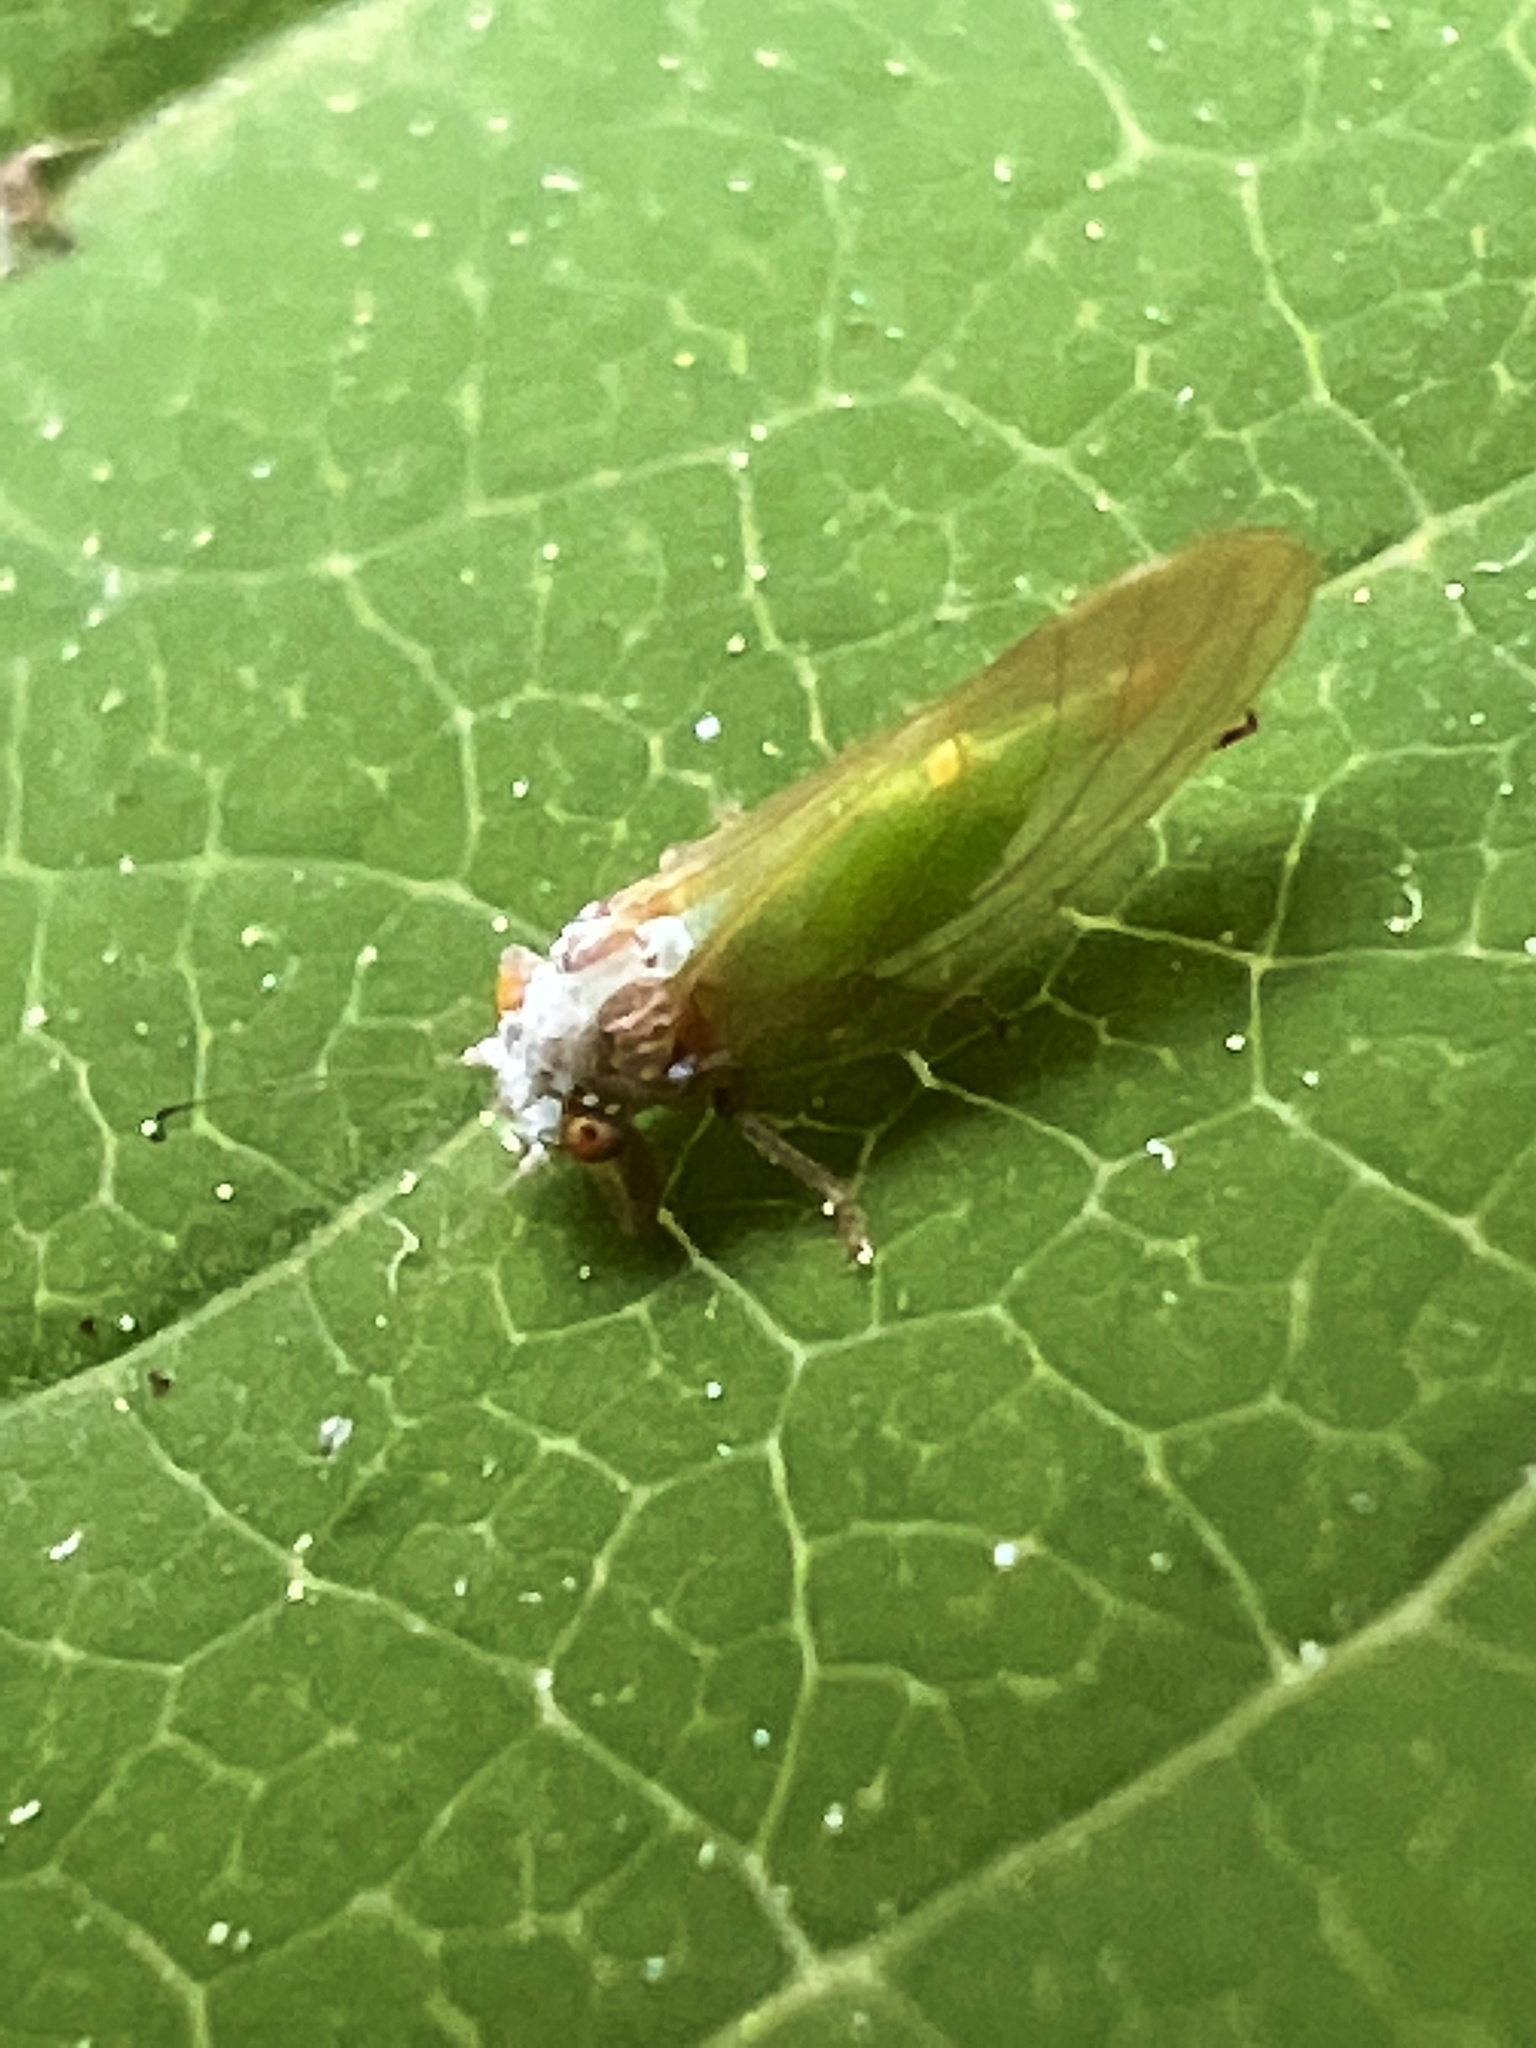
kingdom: Animalia
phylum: Arthropoda
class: Insecta
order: Hemiptera
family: Psyllidae
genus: Psylla
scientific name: Psylla buxi
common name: Boxwood psyllid
